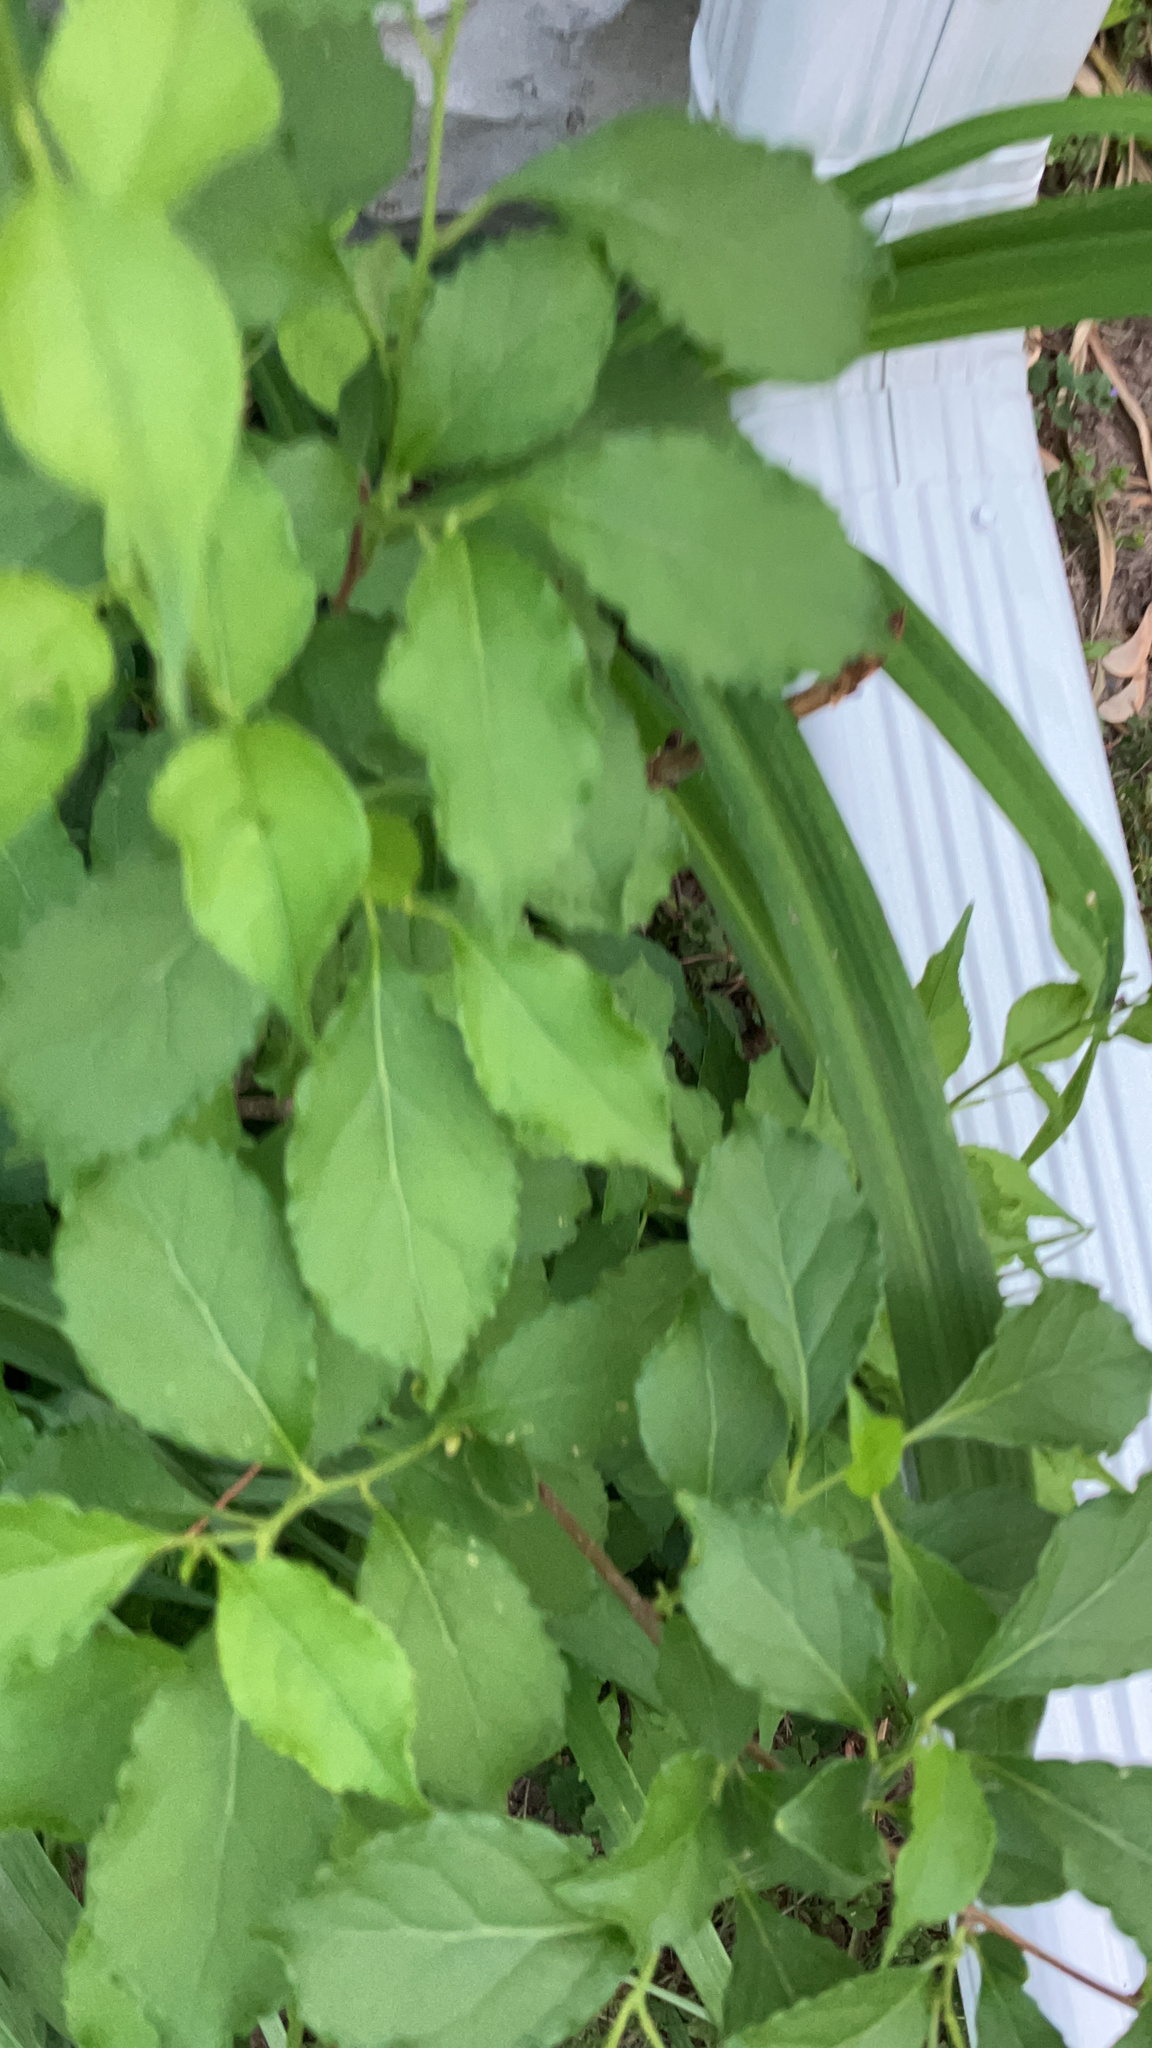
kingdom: Plantae
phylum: Tracheophyta
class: Magnoliopsida
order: Celastrales
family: Celastraceae
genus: Celastrus
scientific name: Celastrus orbiculatus
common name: Oriental bittersweet
